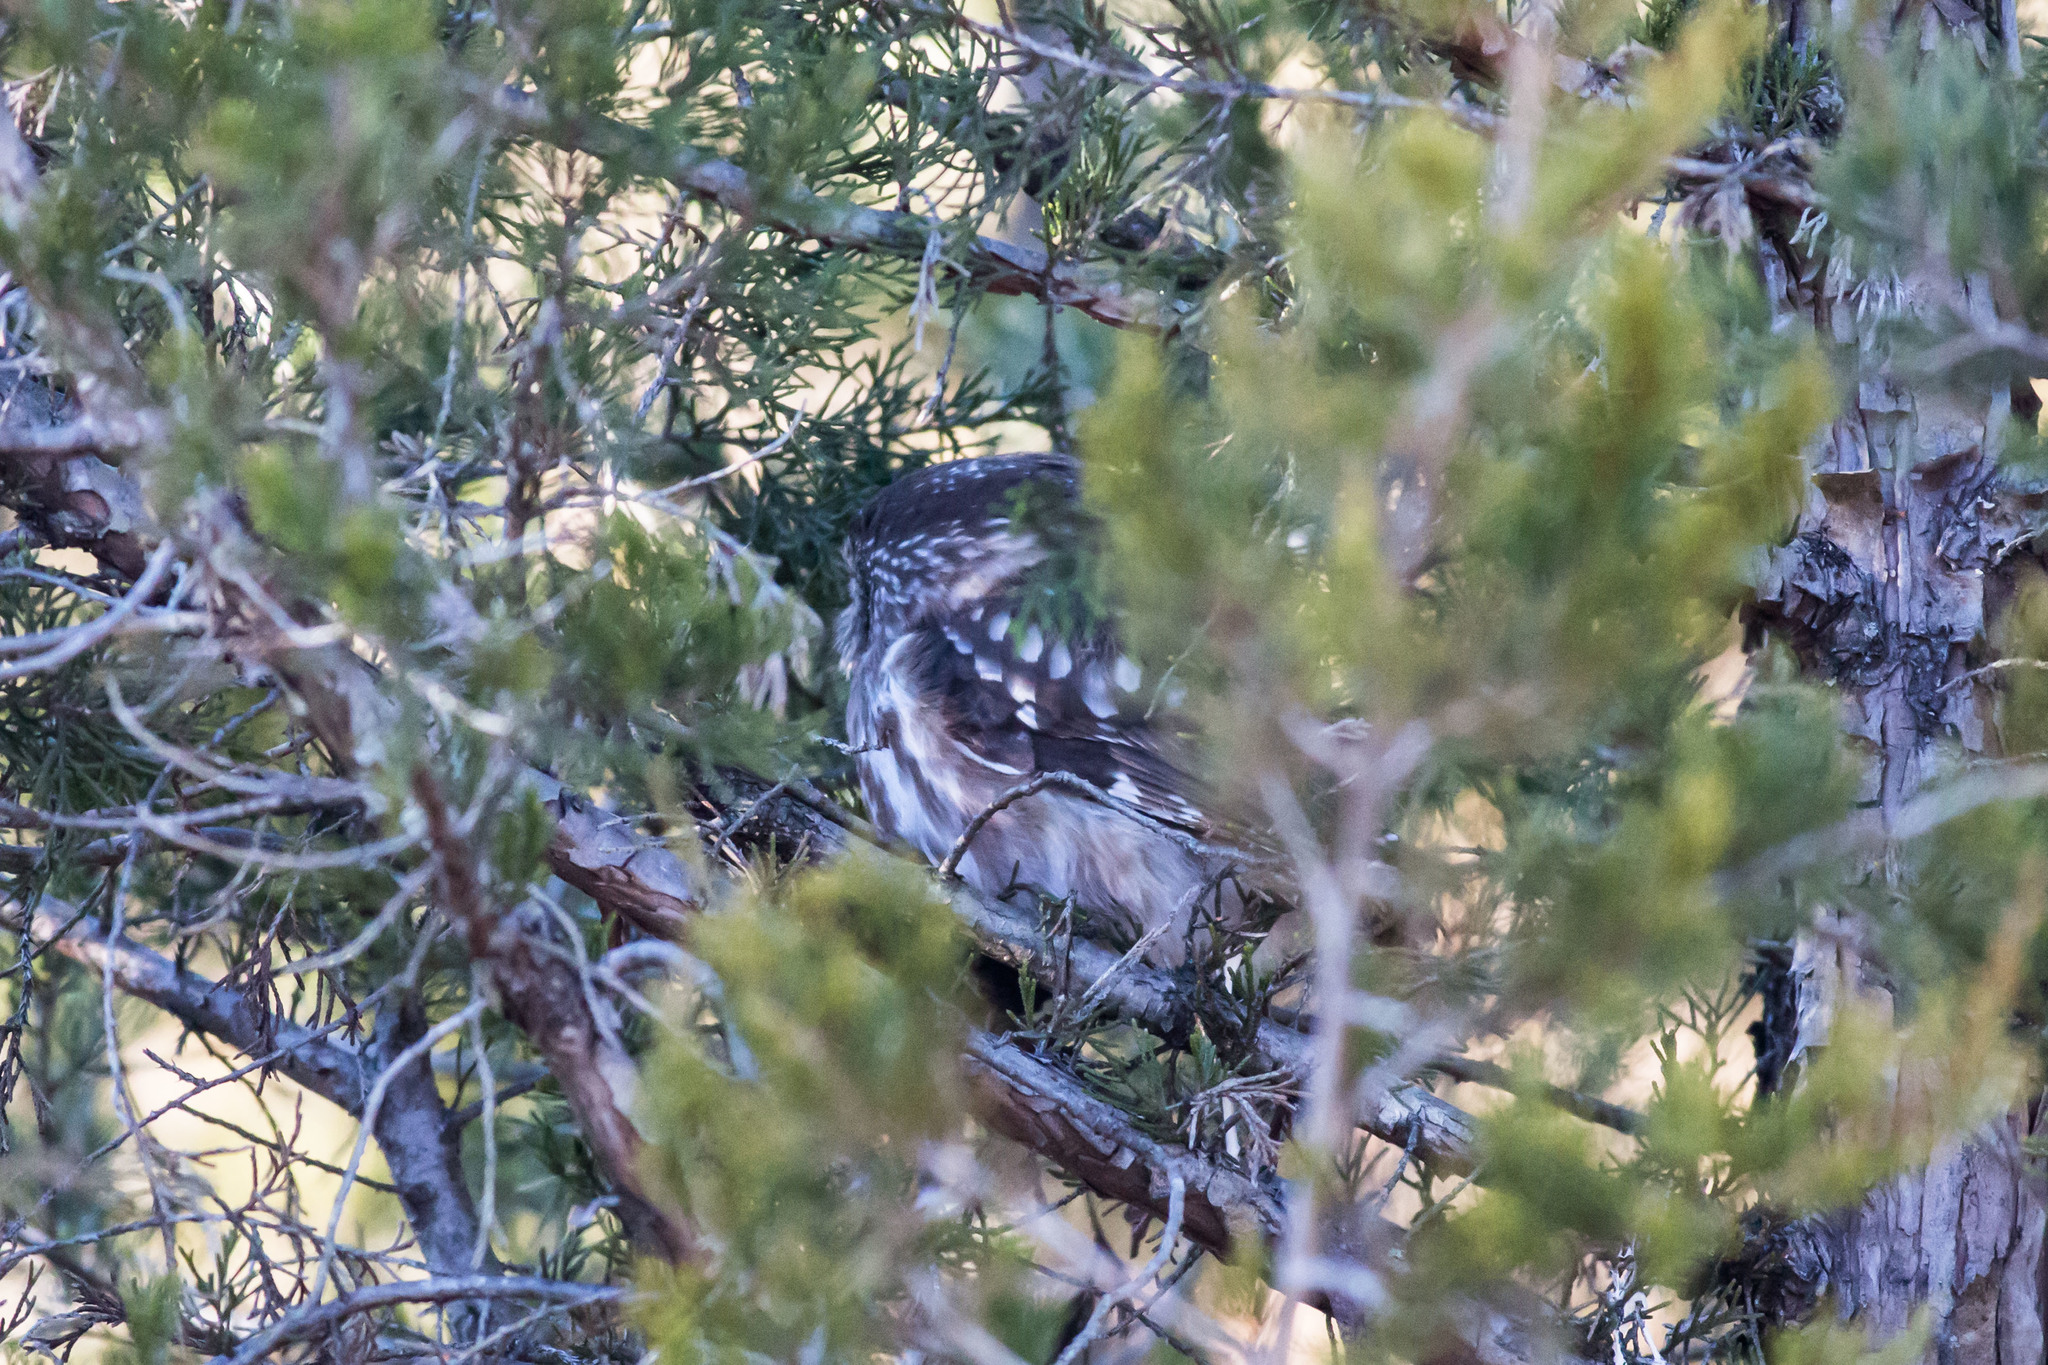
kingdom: Animalia
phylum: Chordata
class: Aves
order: Strigiformes
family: Strigidae
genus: Aegolius
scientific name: Aegolius acadicus
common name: Northern saw-whet owl
